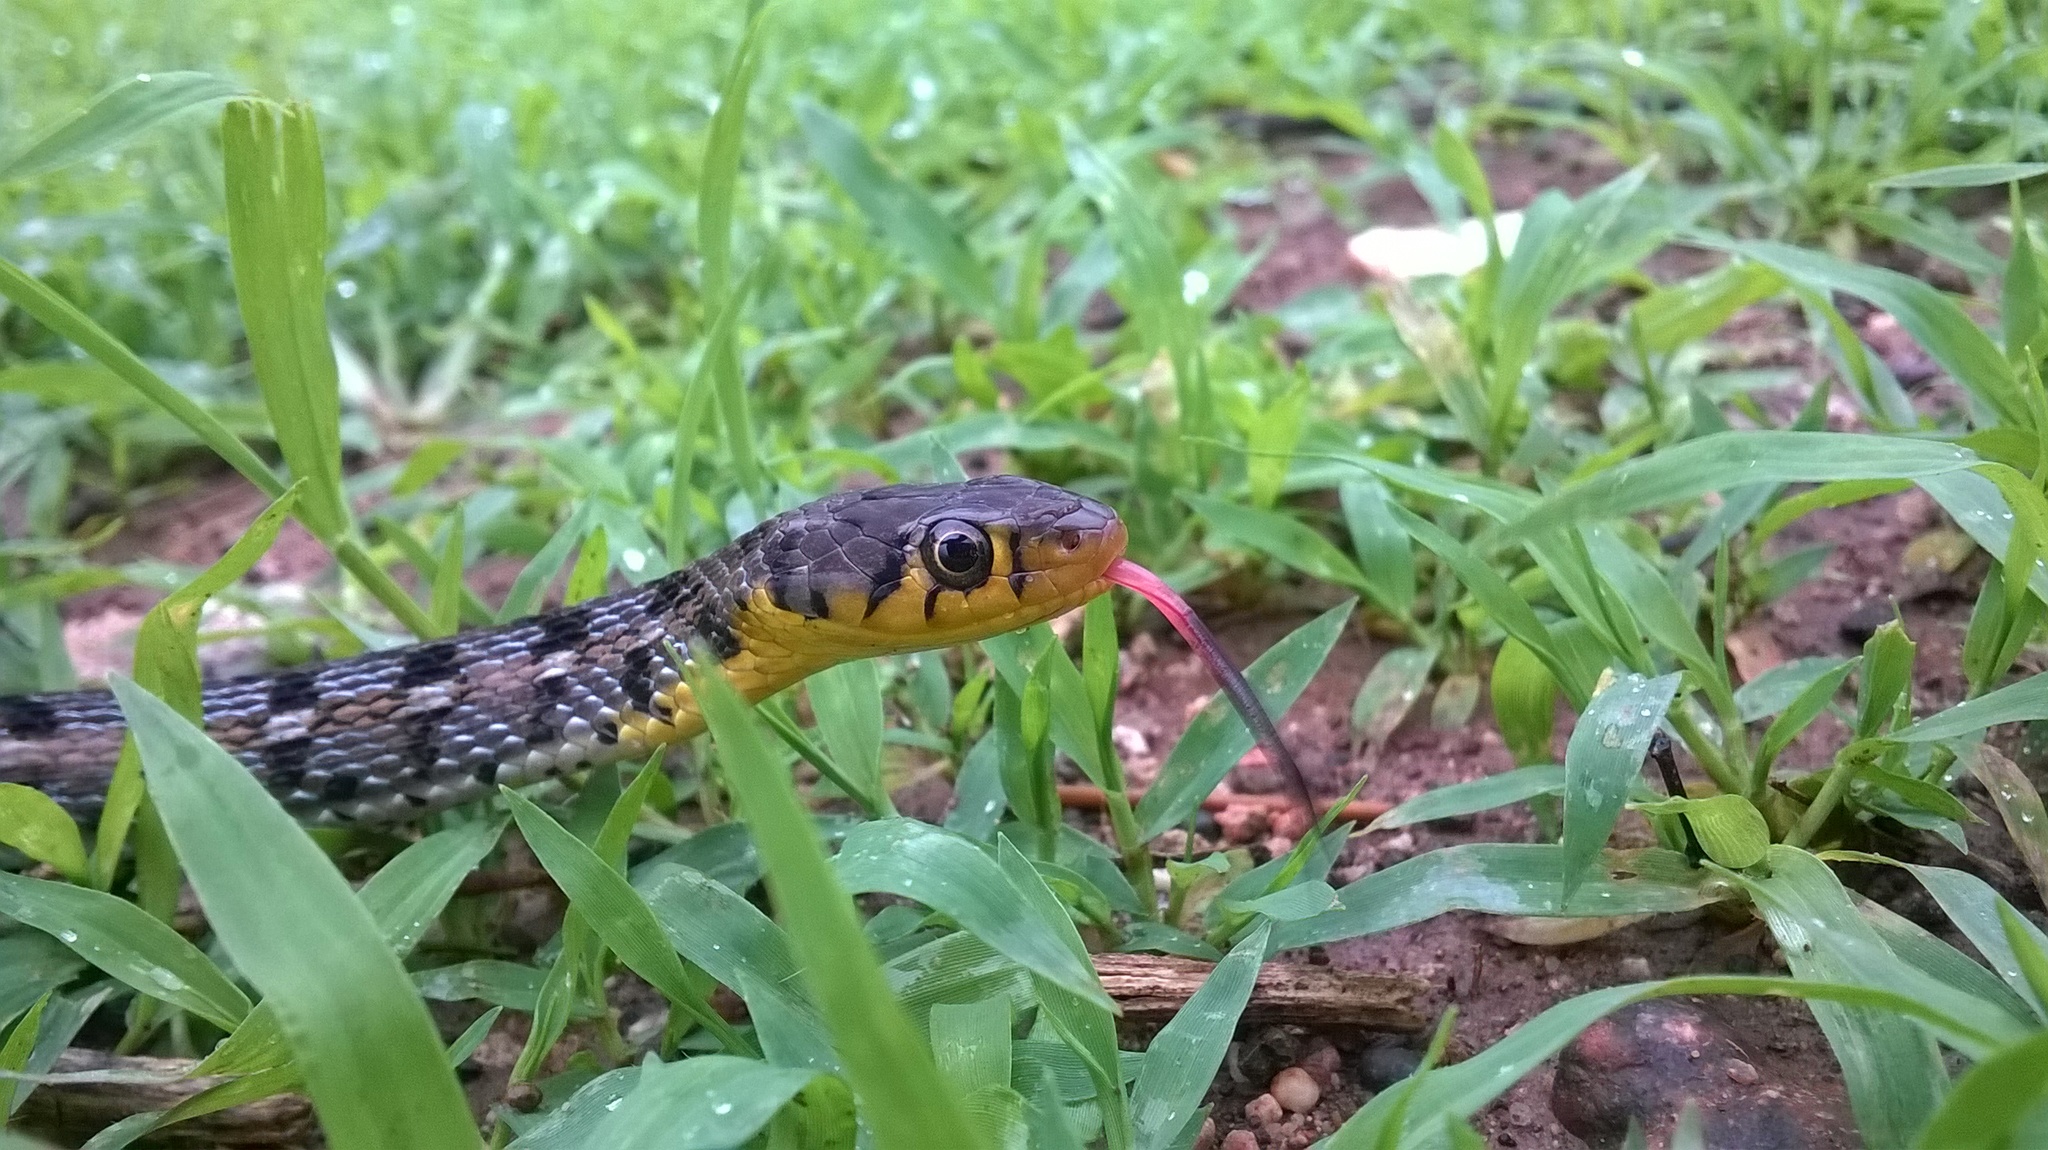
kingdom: Animalia
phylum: Chordata
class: Squamata
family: Colubridae
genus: Amphiesma
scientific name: Amphiesma stolatum
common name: Buff striped keelback
